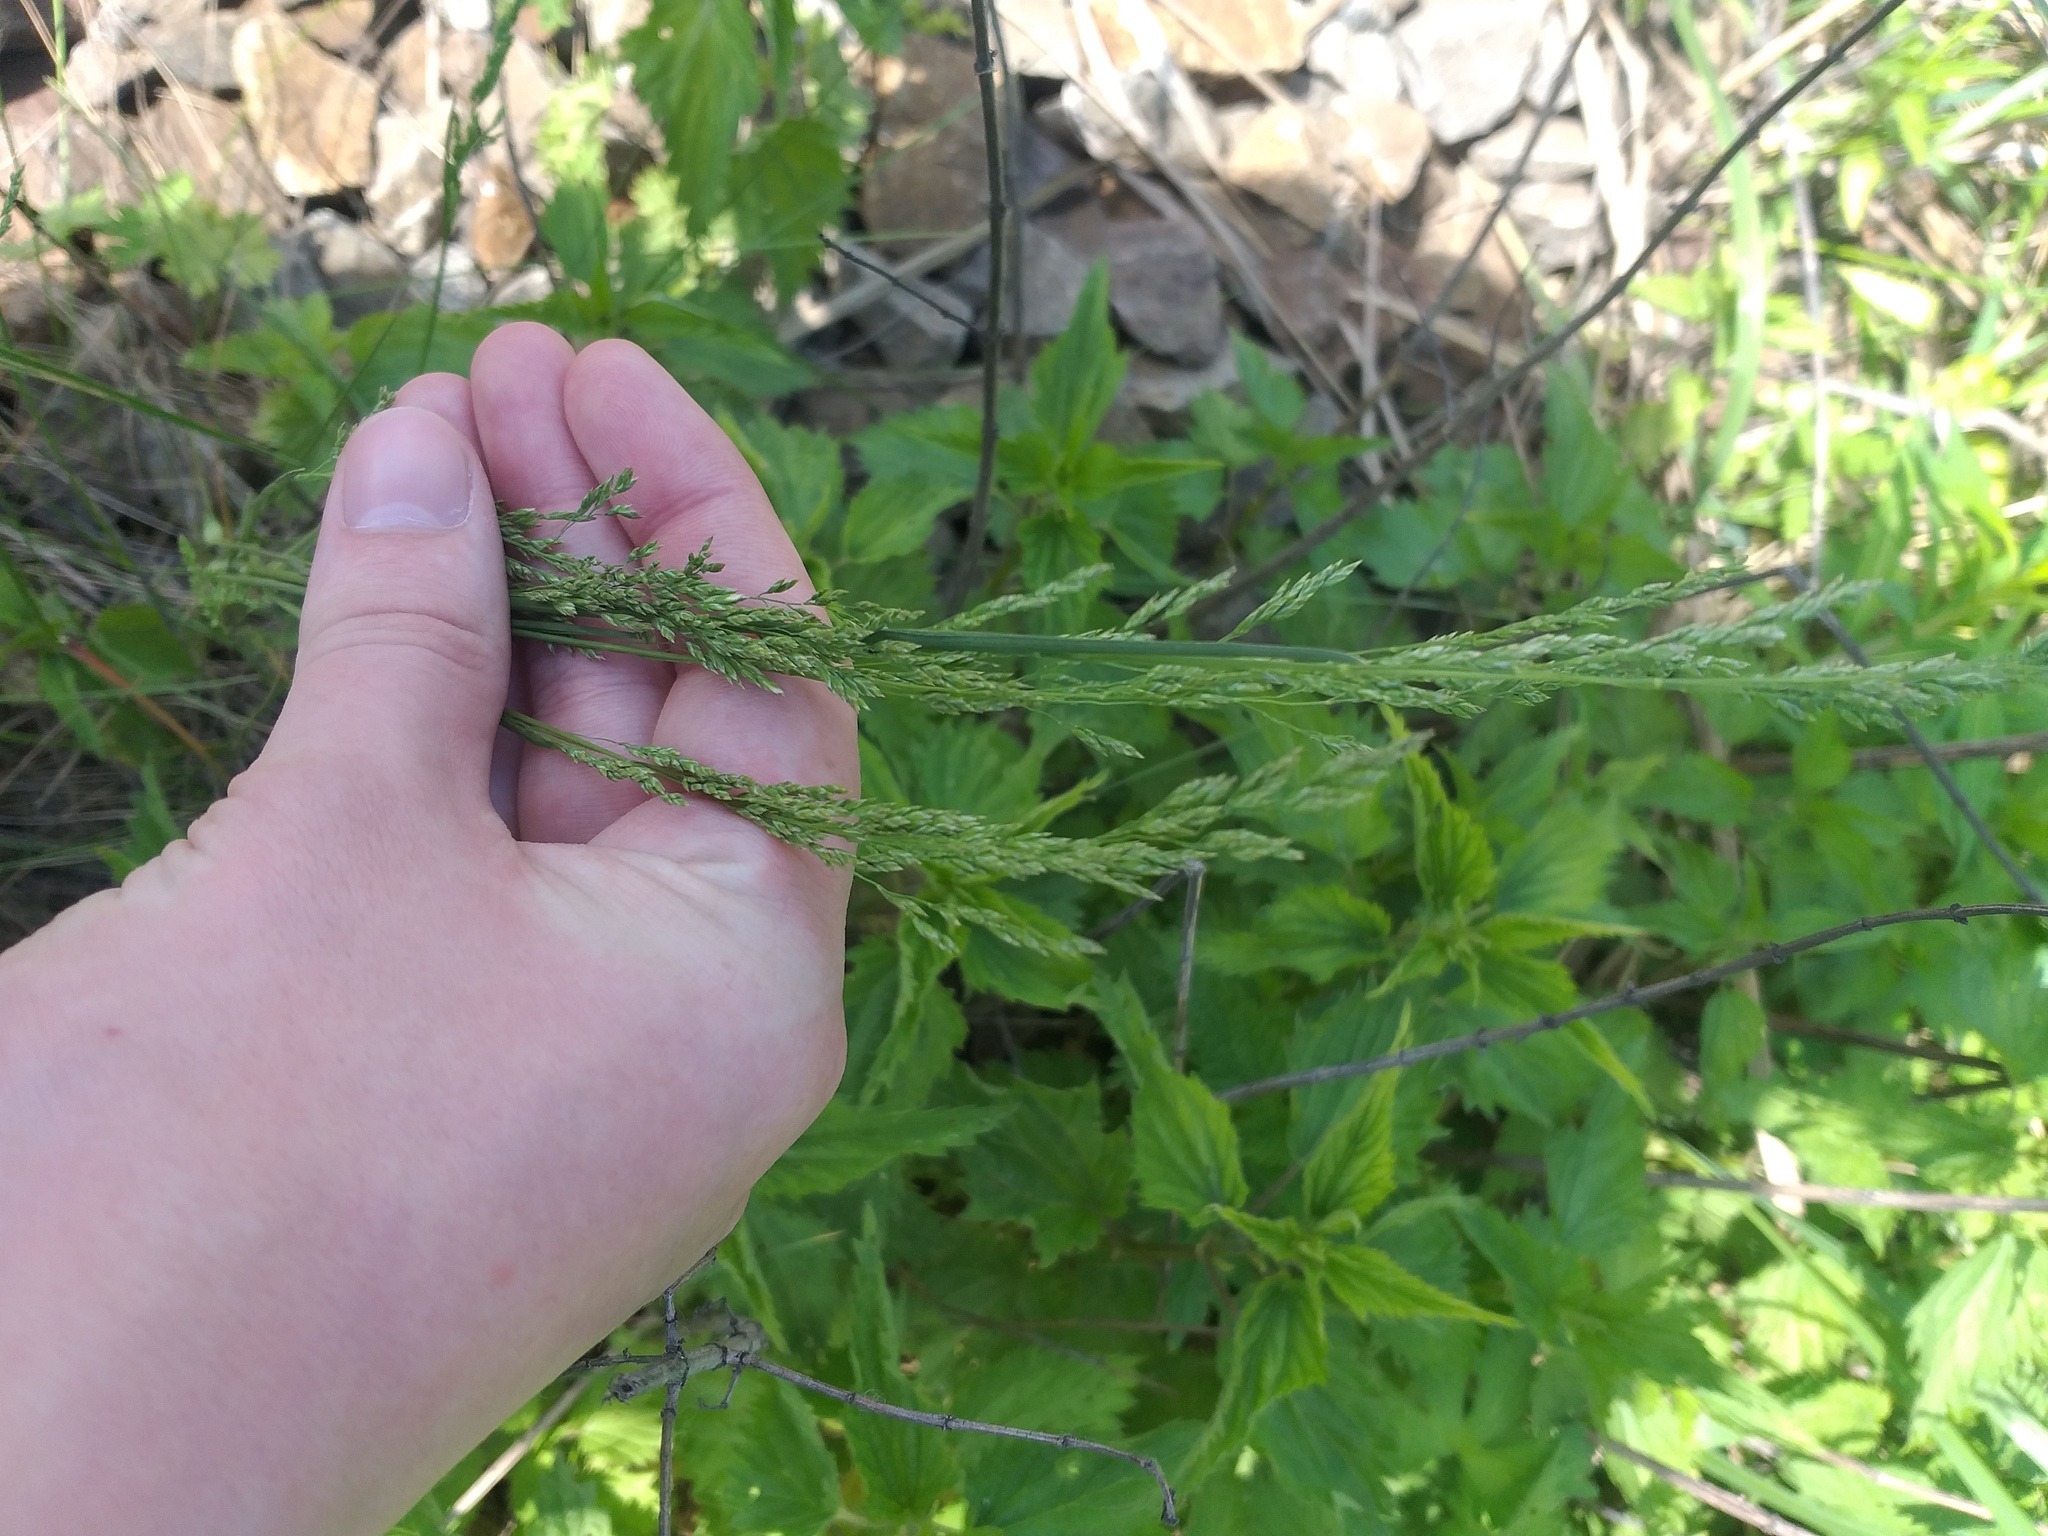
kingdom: Plantae
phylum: Tracheophyta
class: Liliopsida
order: Poales
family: Poaceae
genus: Poa
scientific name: Poa angustifolia
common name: Narrow-leaved meadow-grass
